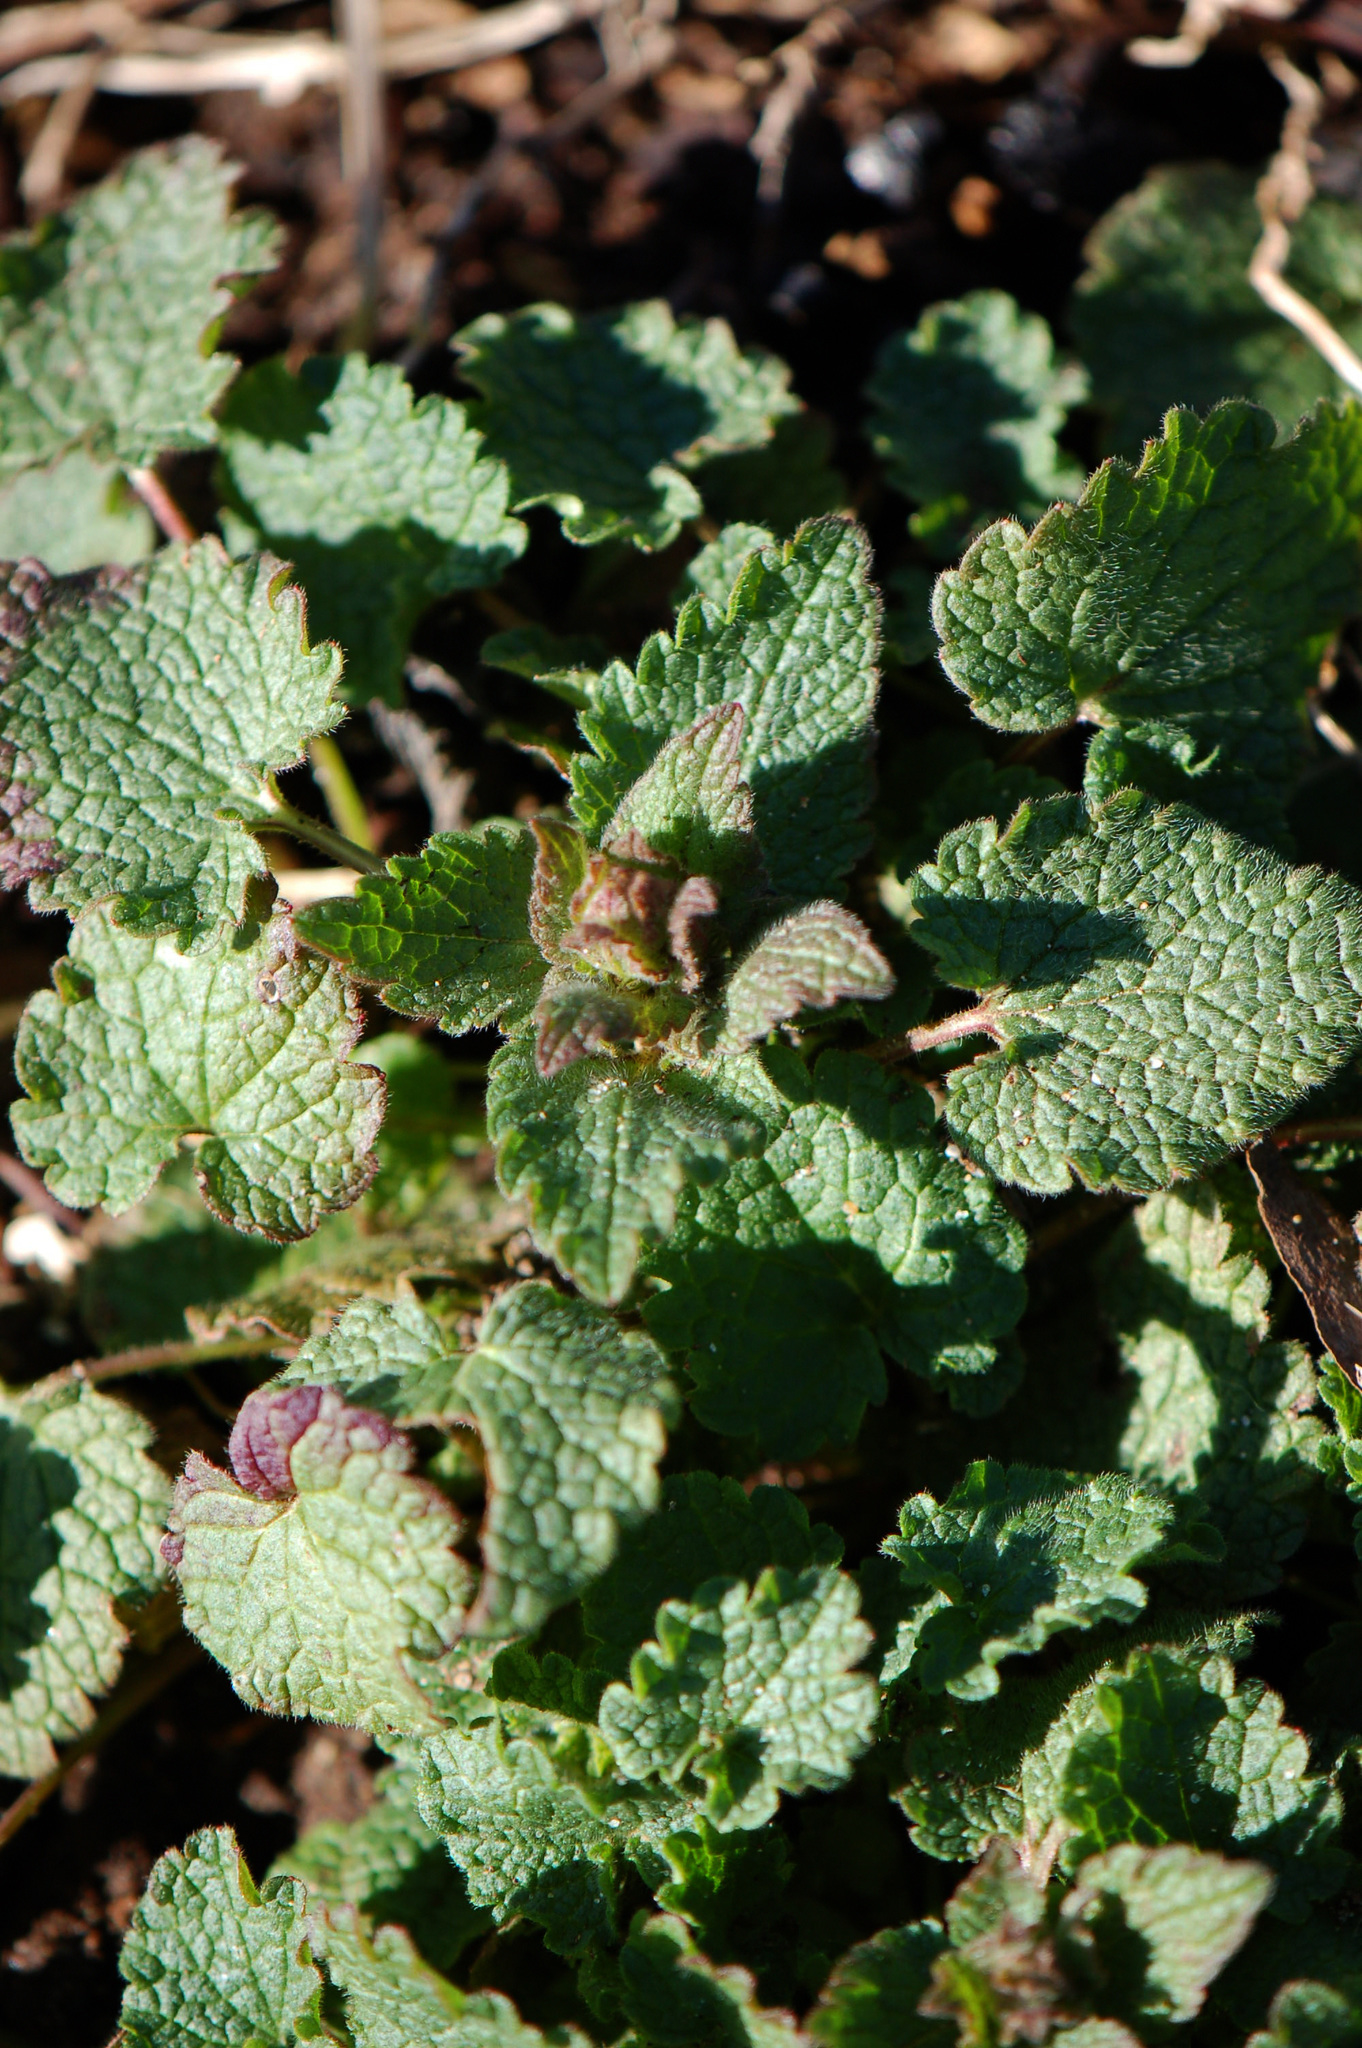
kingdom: Plantae
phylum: Tracheophyta
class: Magnoliopsida
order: Lamiales
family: Lamiaceae
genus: Lamium
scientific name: Lamium purpureum
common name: Red dead-nettle
